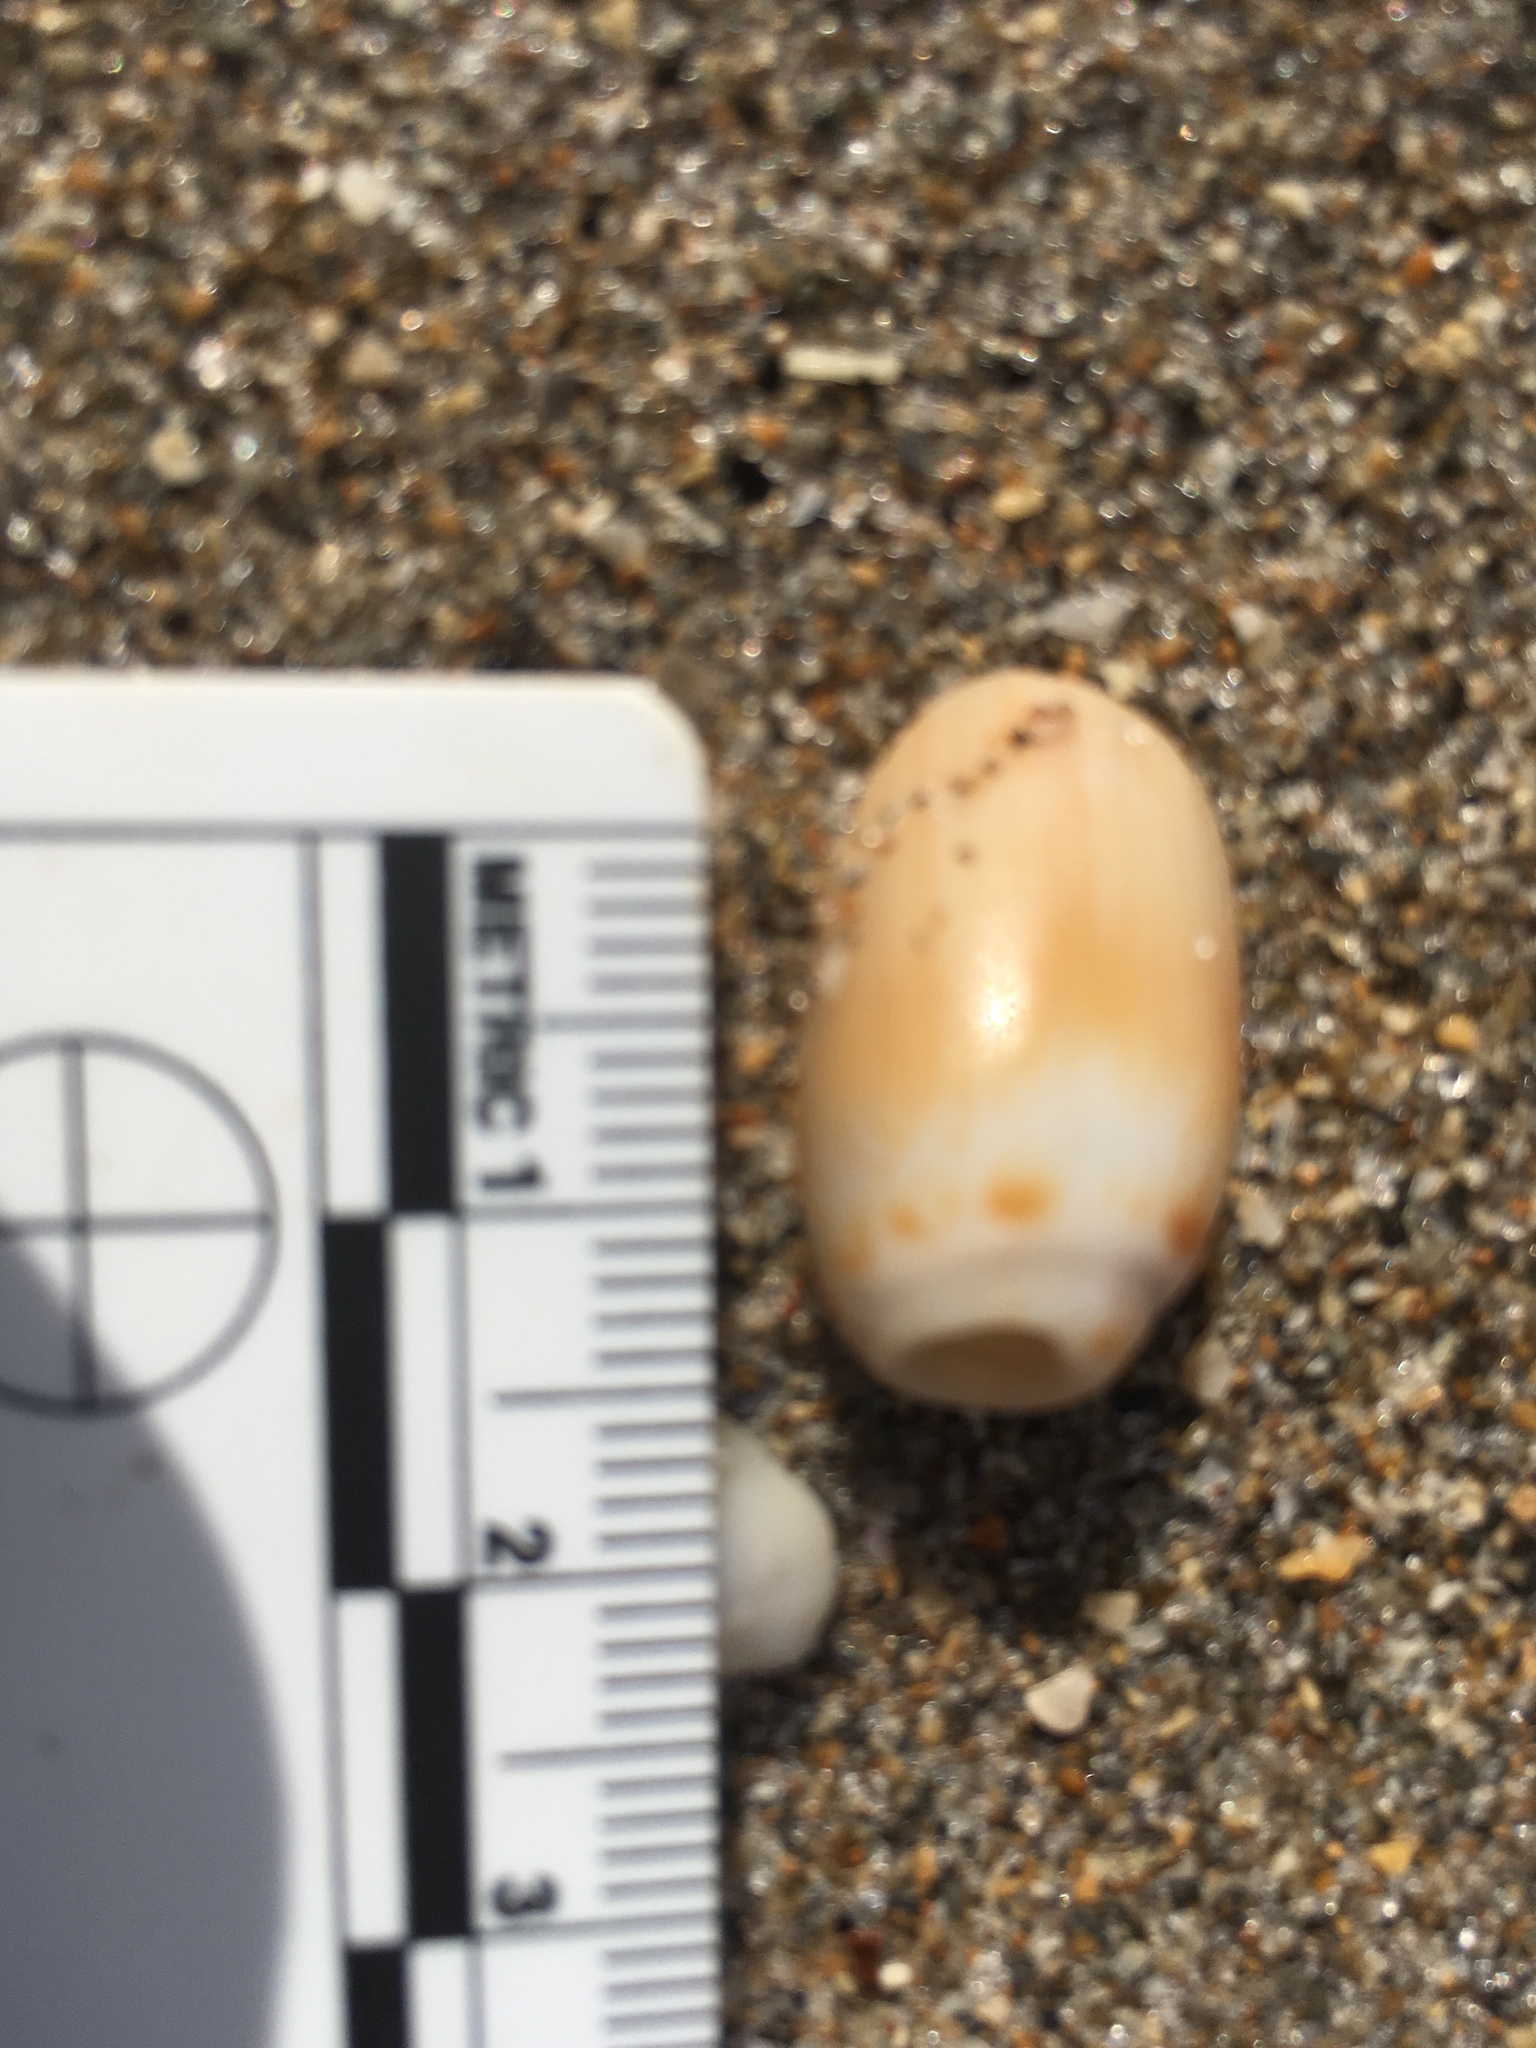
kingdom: Animalia
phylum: Mollusca
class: Gastropoda
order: Neogastropoda
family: Olividae
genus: Oliva
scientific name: Oliva sayana
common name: Lettered olive
